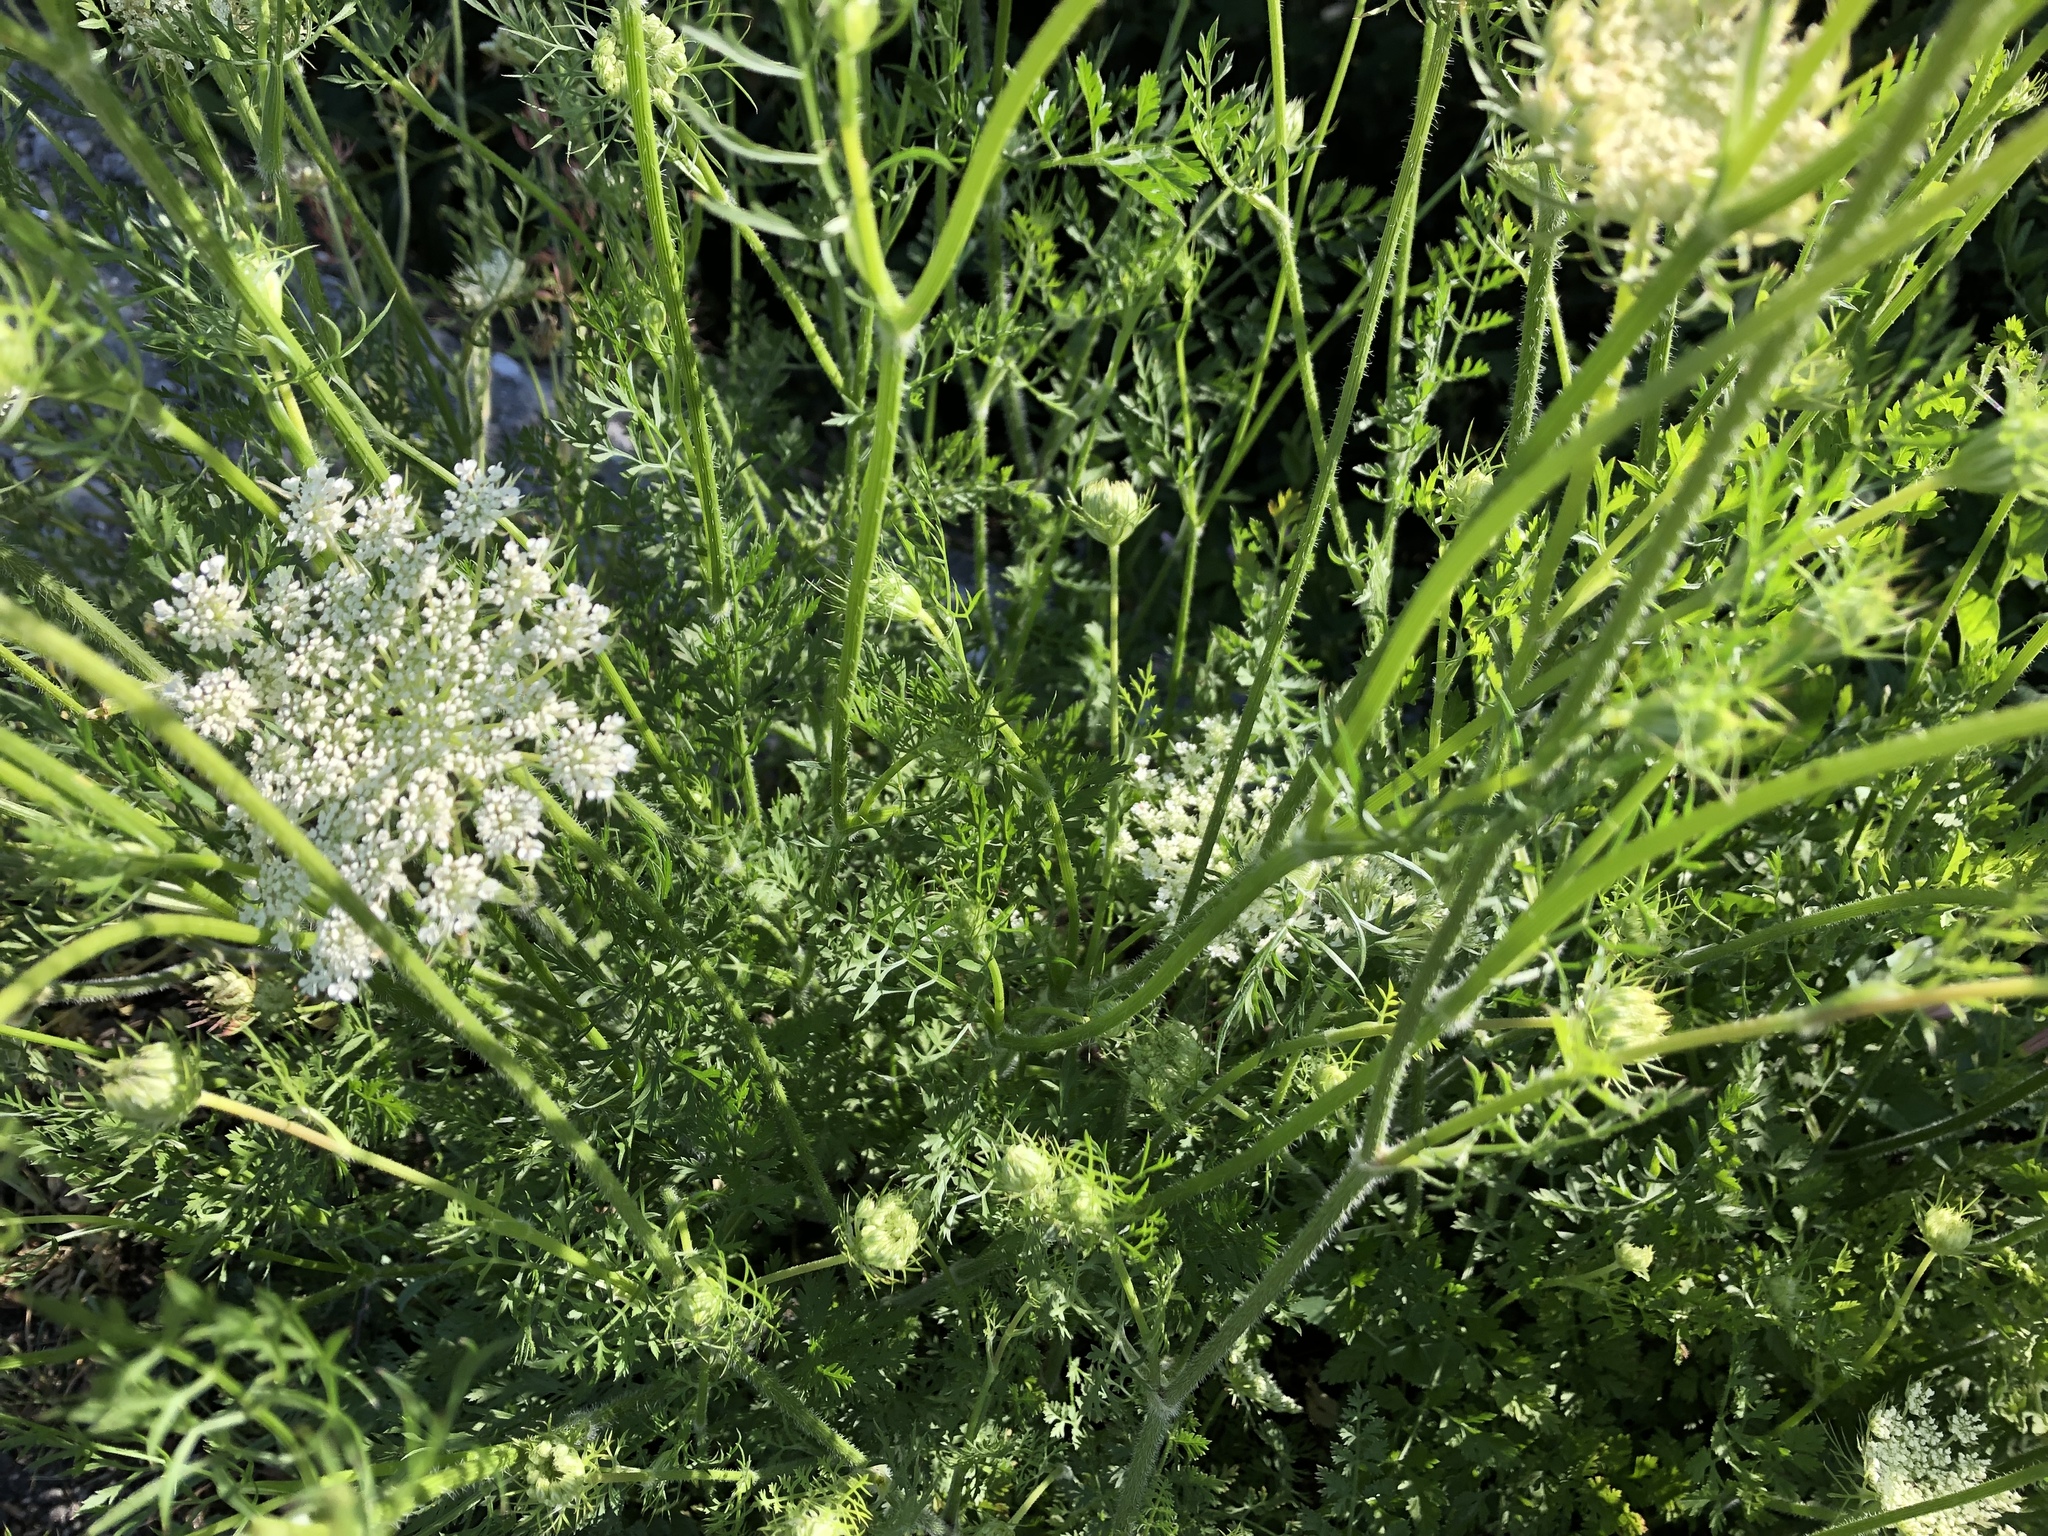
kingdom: Plantae
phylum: Tracheophyta
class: Magnoliopsida
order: Apiales
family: Apiaceae
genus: Daucus
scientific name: Daucus carota
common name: Wild carrot
